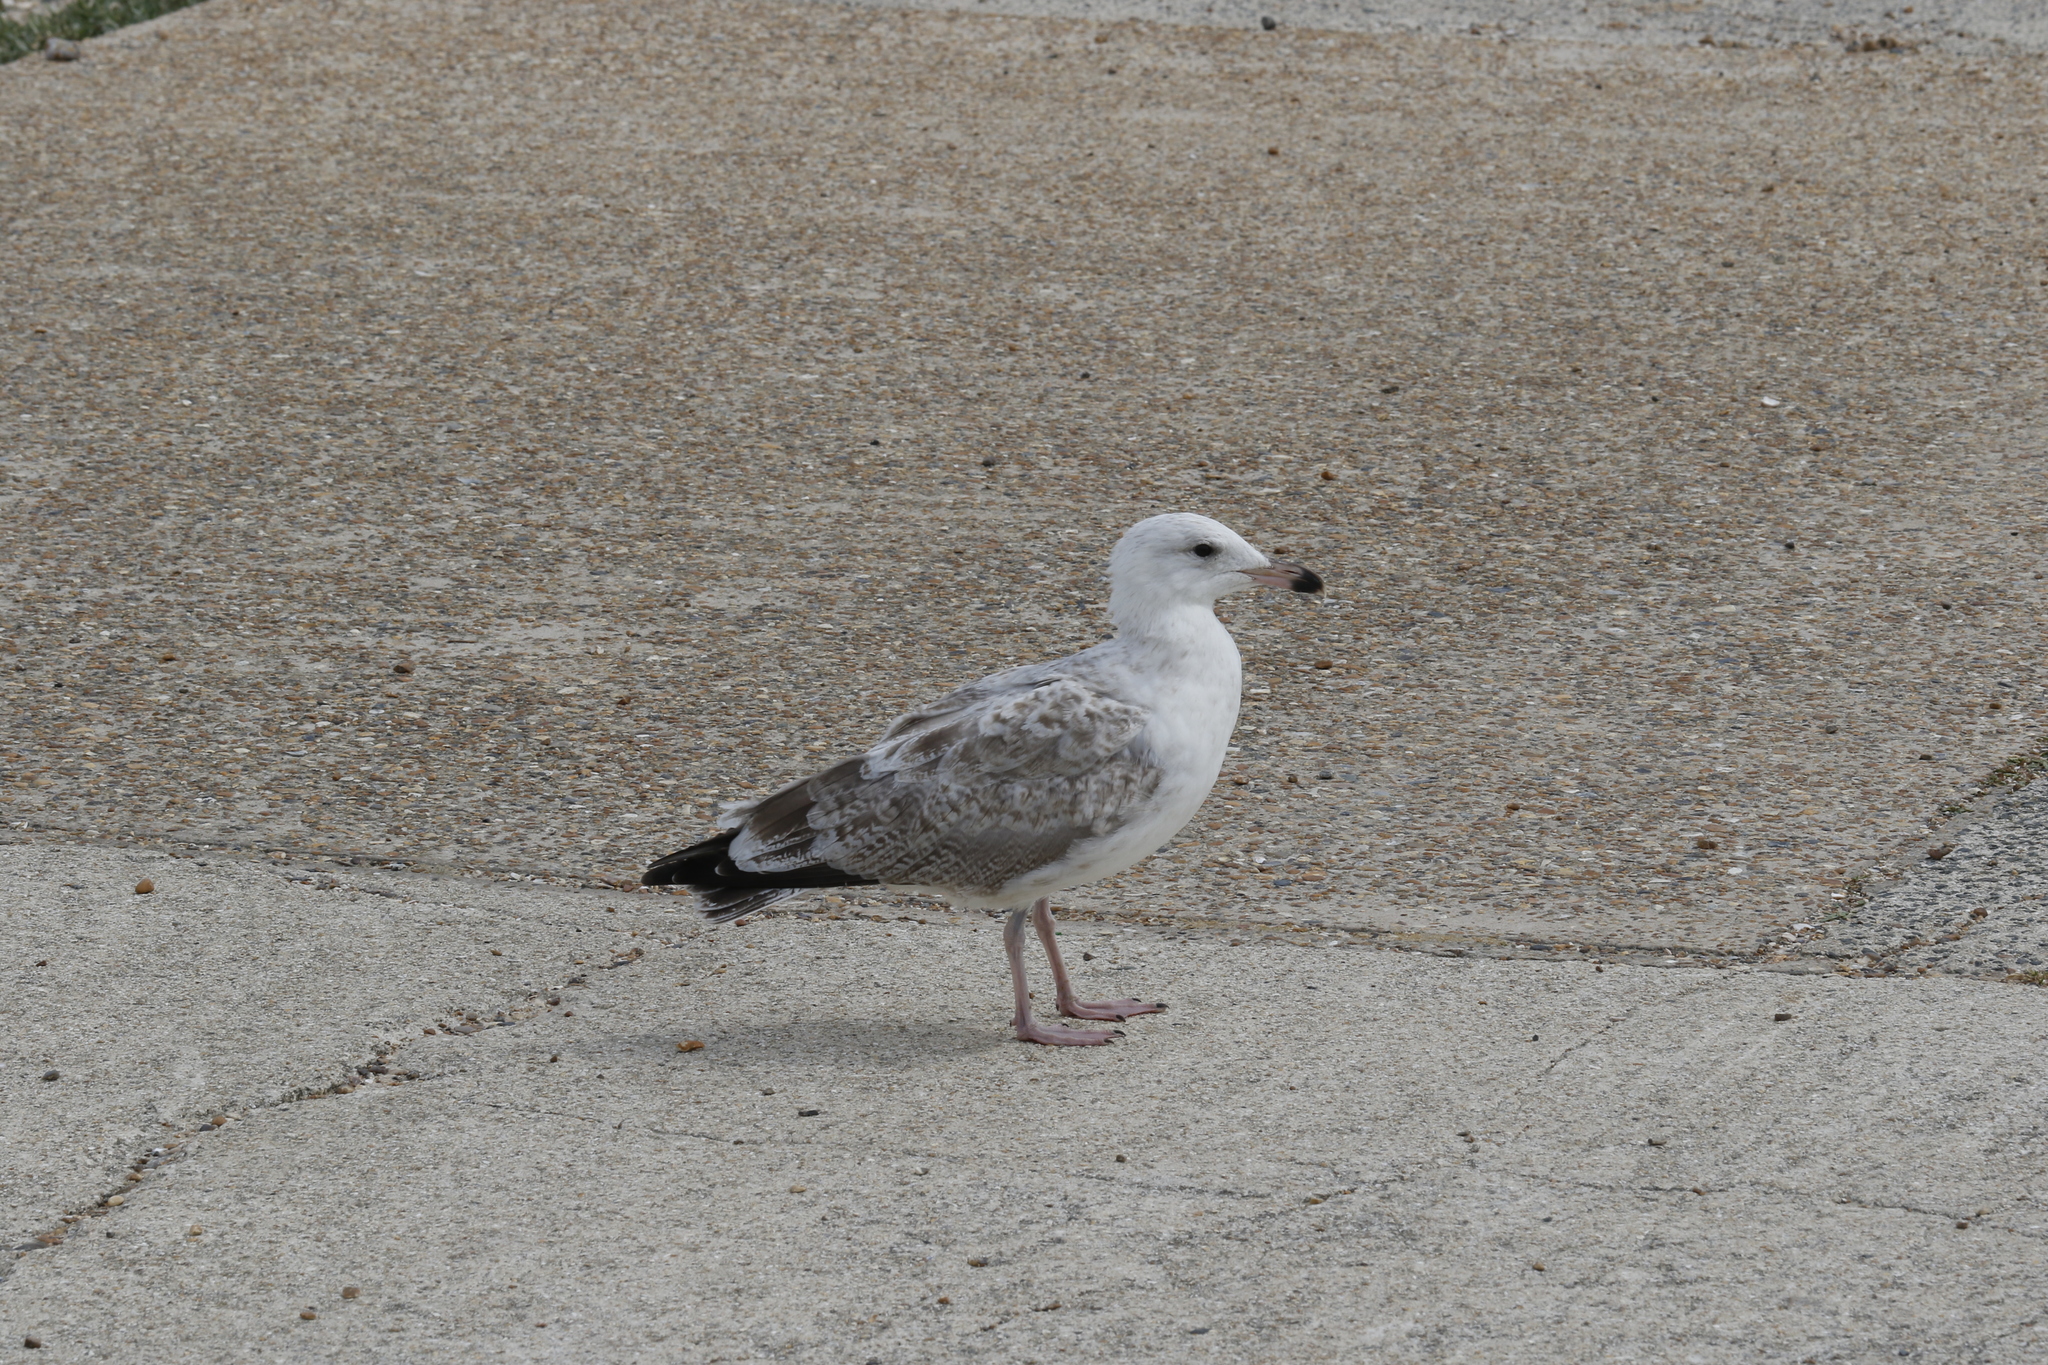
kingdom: Animalia
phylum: Chordata
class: Aves
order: Charadriiformes
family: Laridae
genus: Larus
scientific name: Larus argentatus
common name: Herring gull
